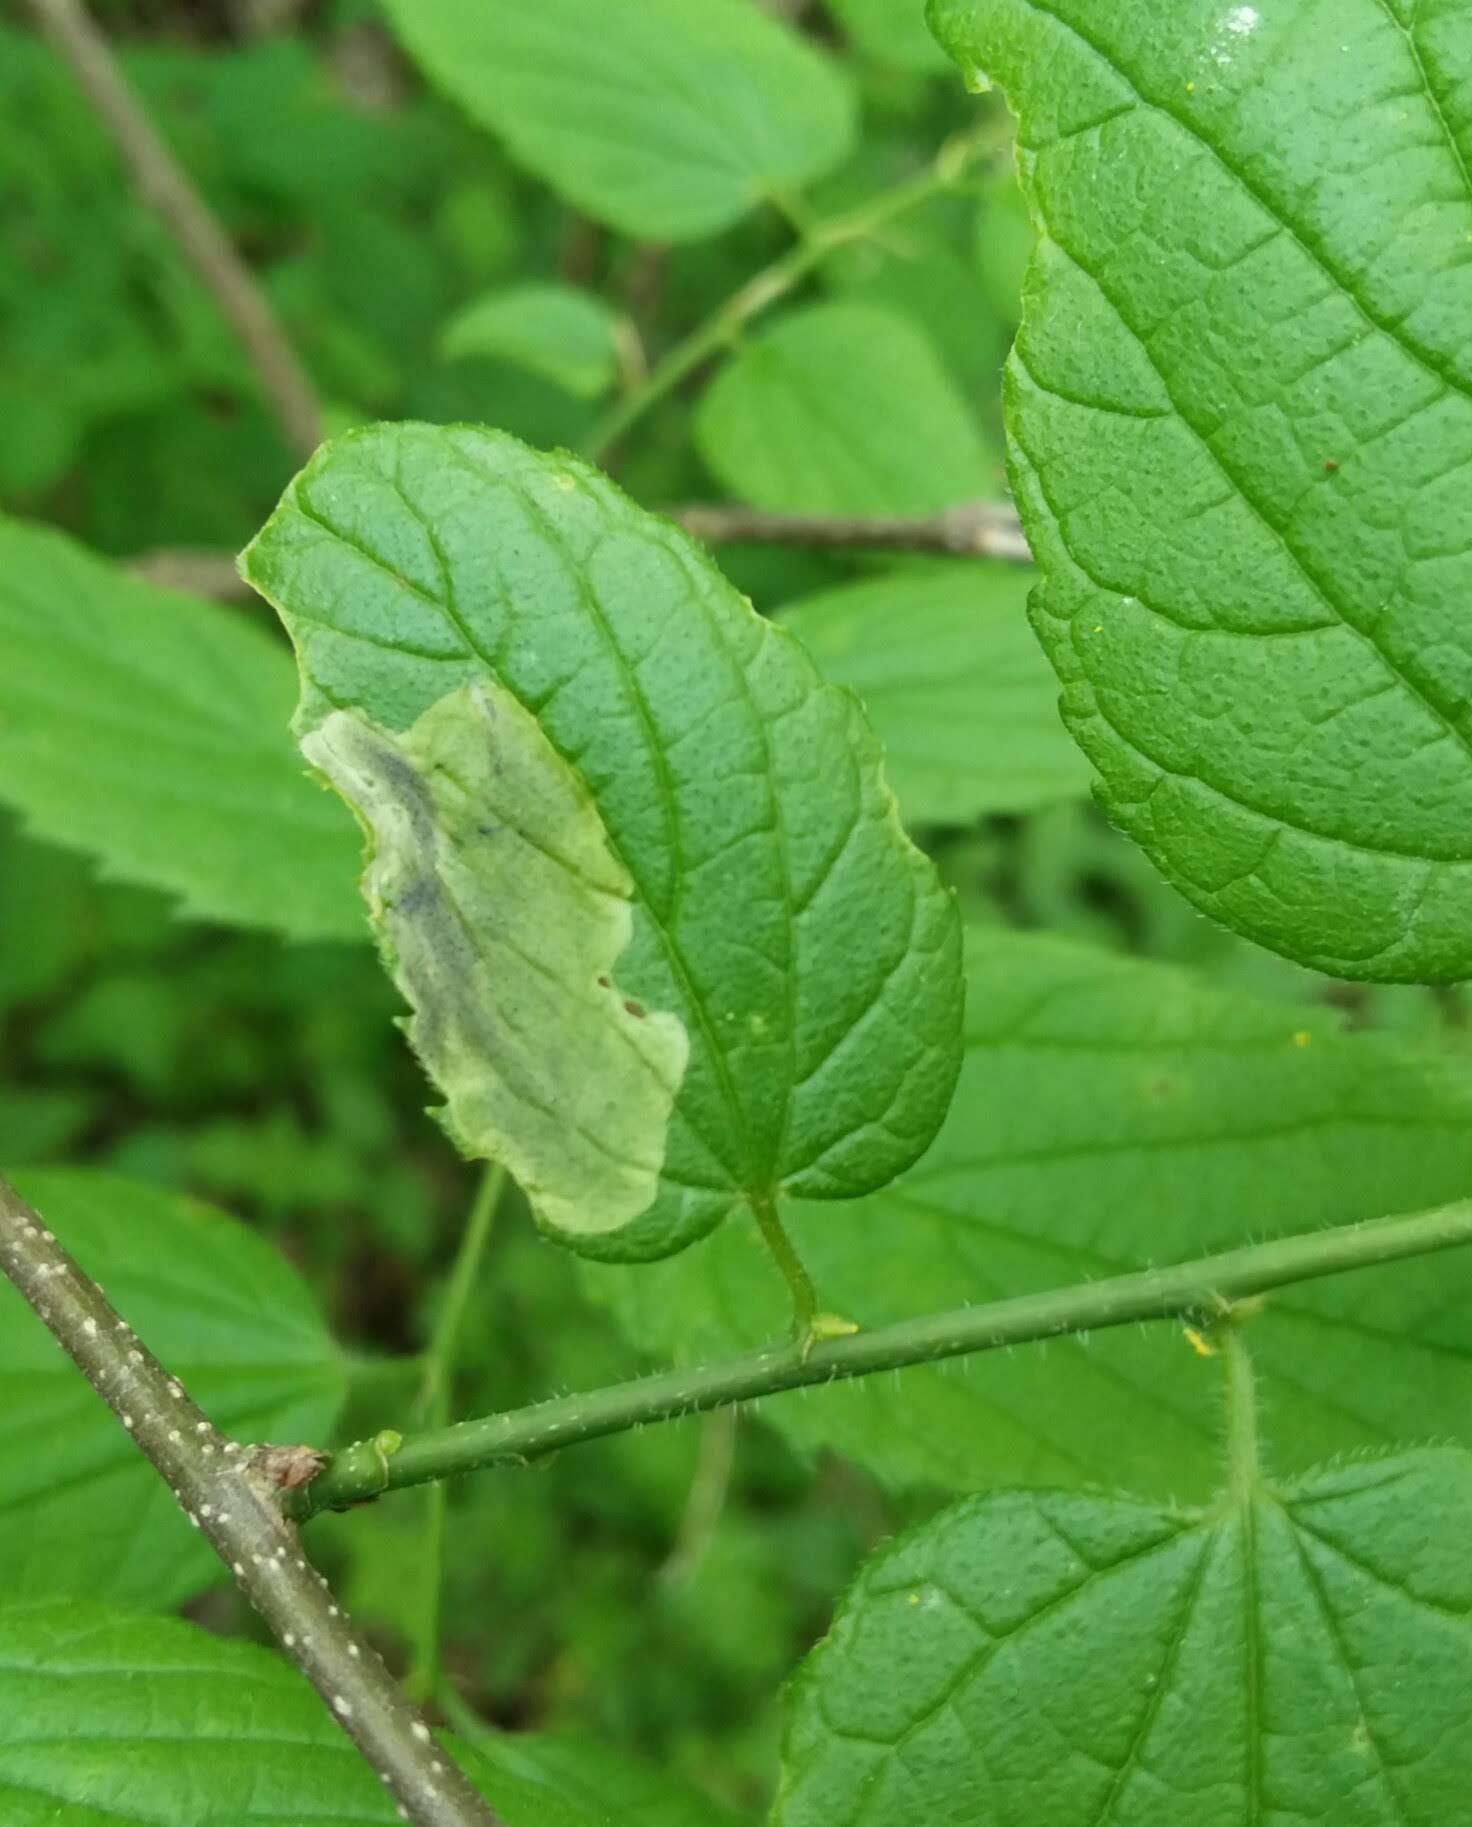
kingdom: Animalia
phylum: Arthropoda
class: Insecta
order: Diptera
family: Agromyzidae
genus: Agromyza
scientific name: Agromyza
